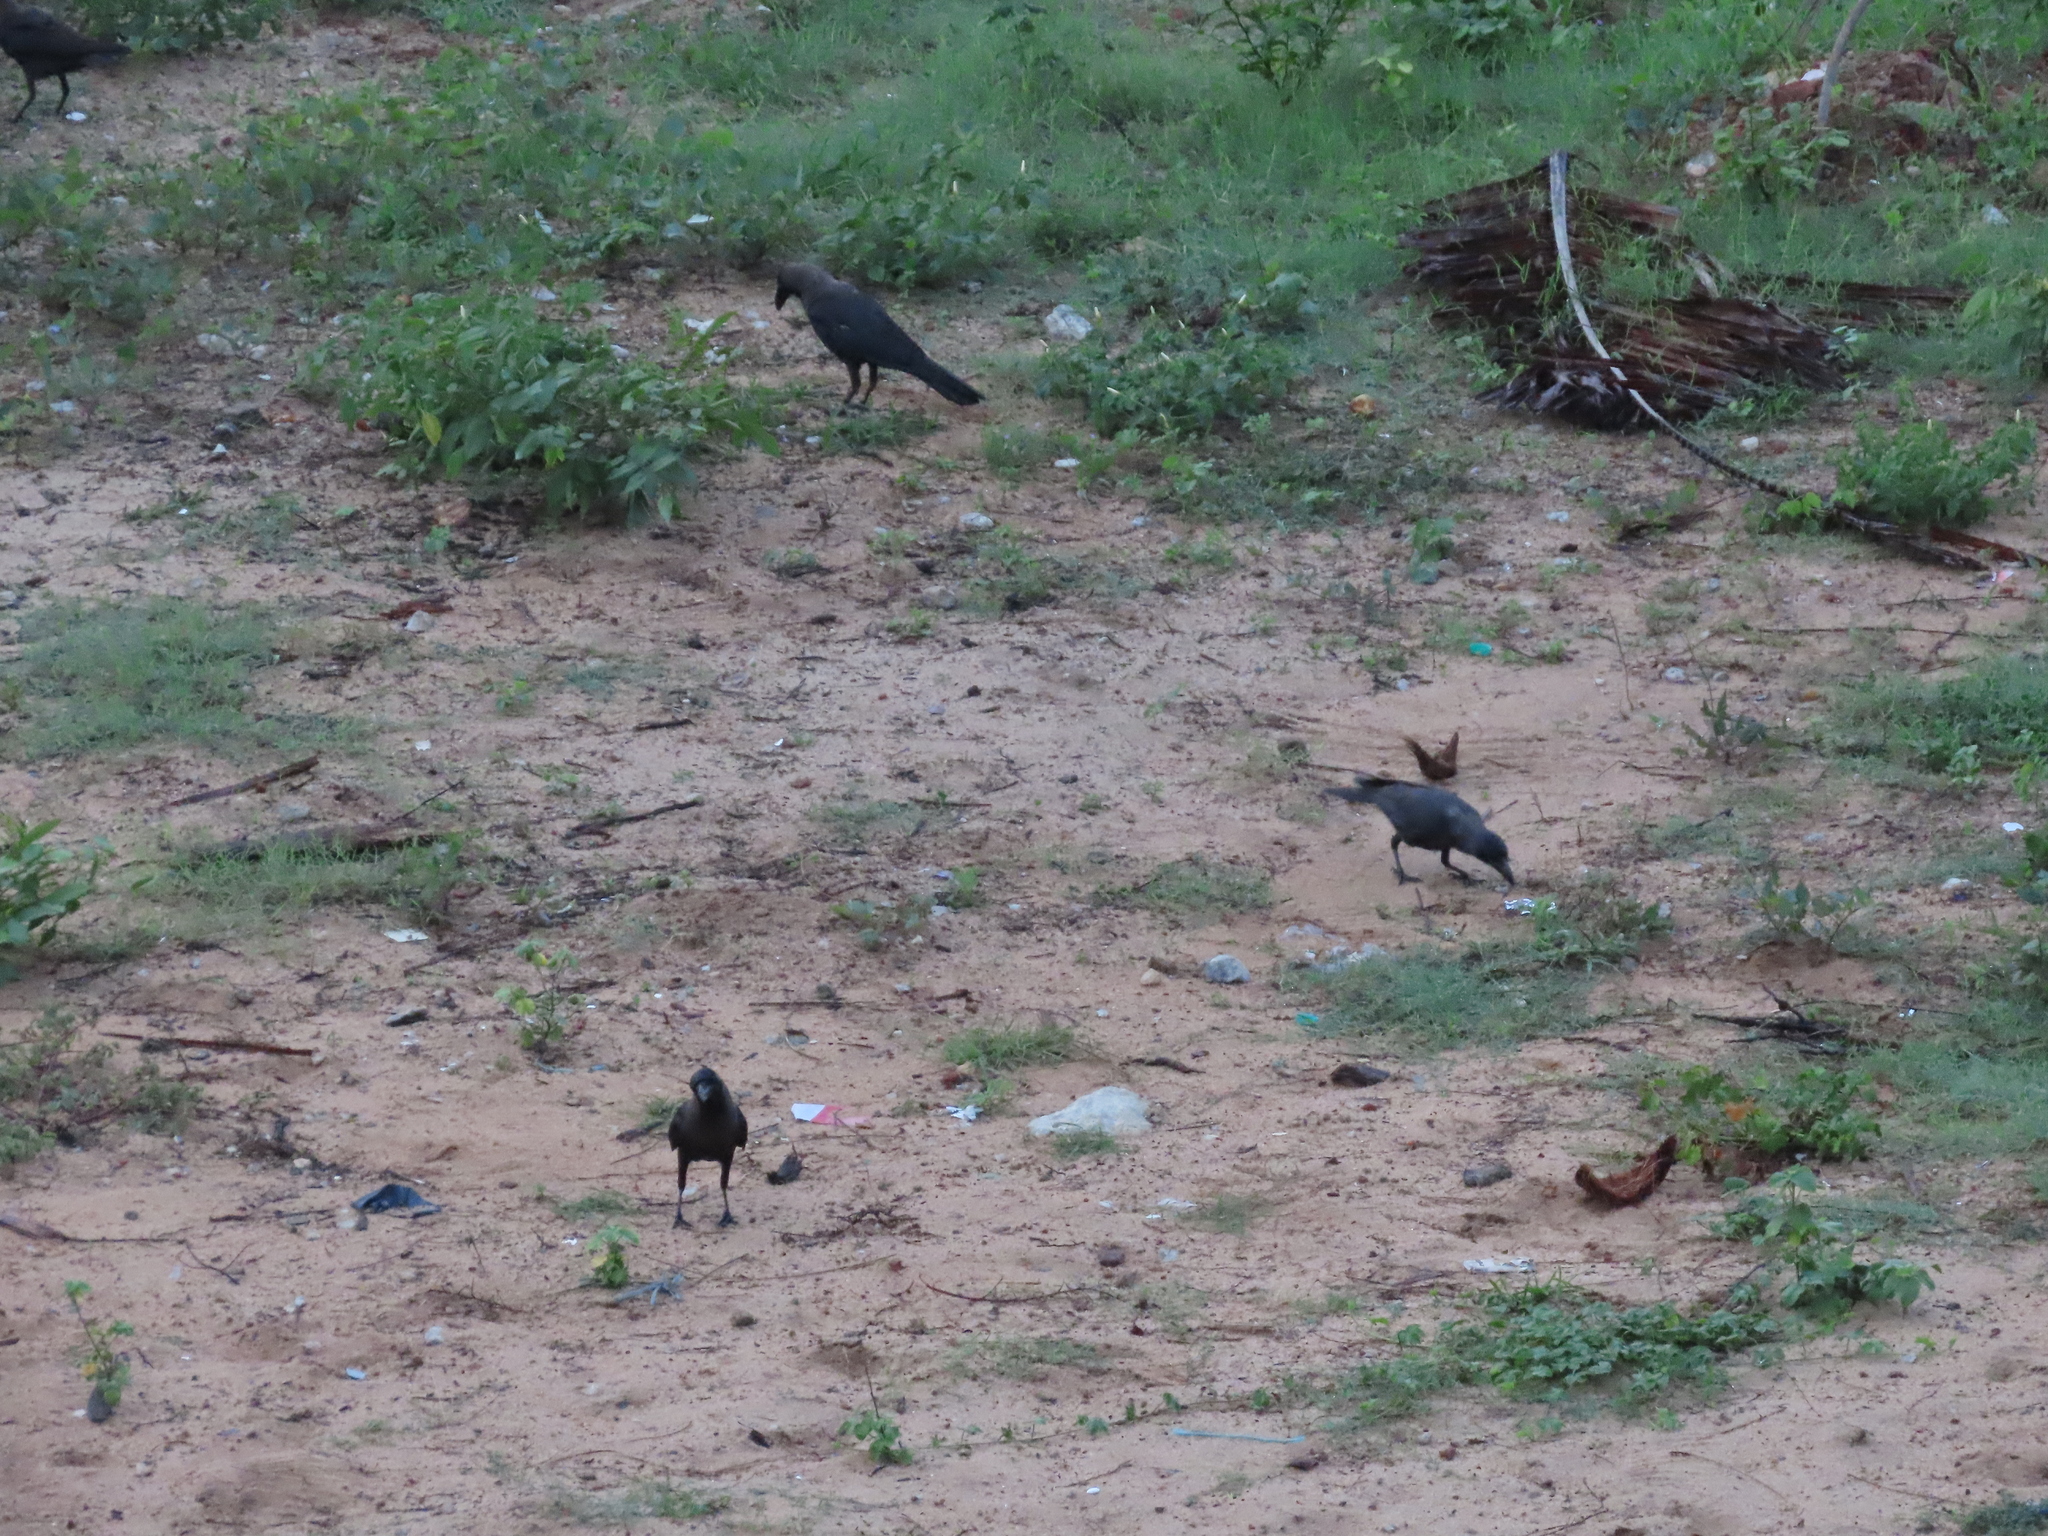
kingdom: Animalia
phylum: Chordata
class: Aves
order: Passeriformes
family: Corvidae
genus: Corvus
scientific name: Corvus splendens
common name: House crow
